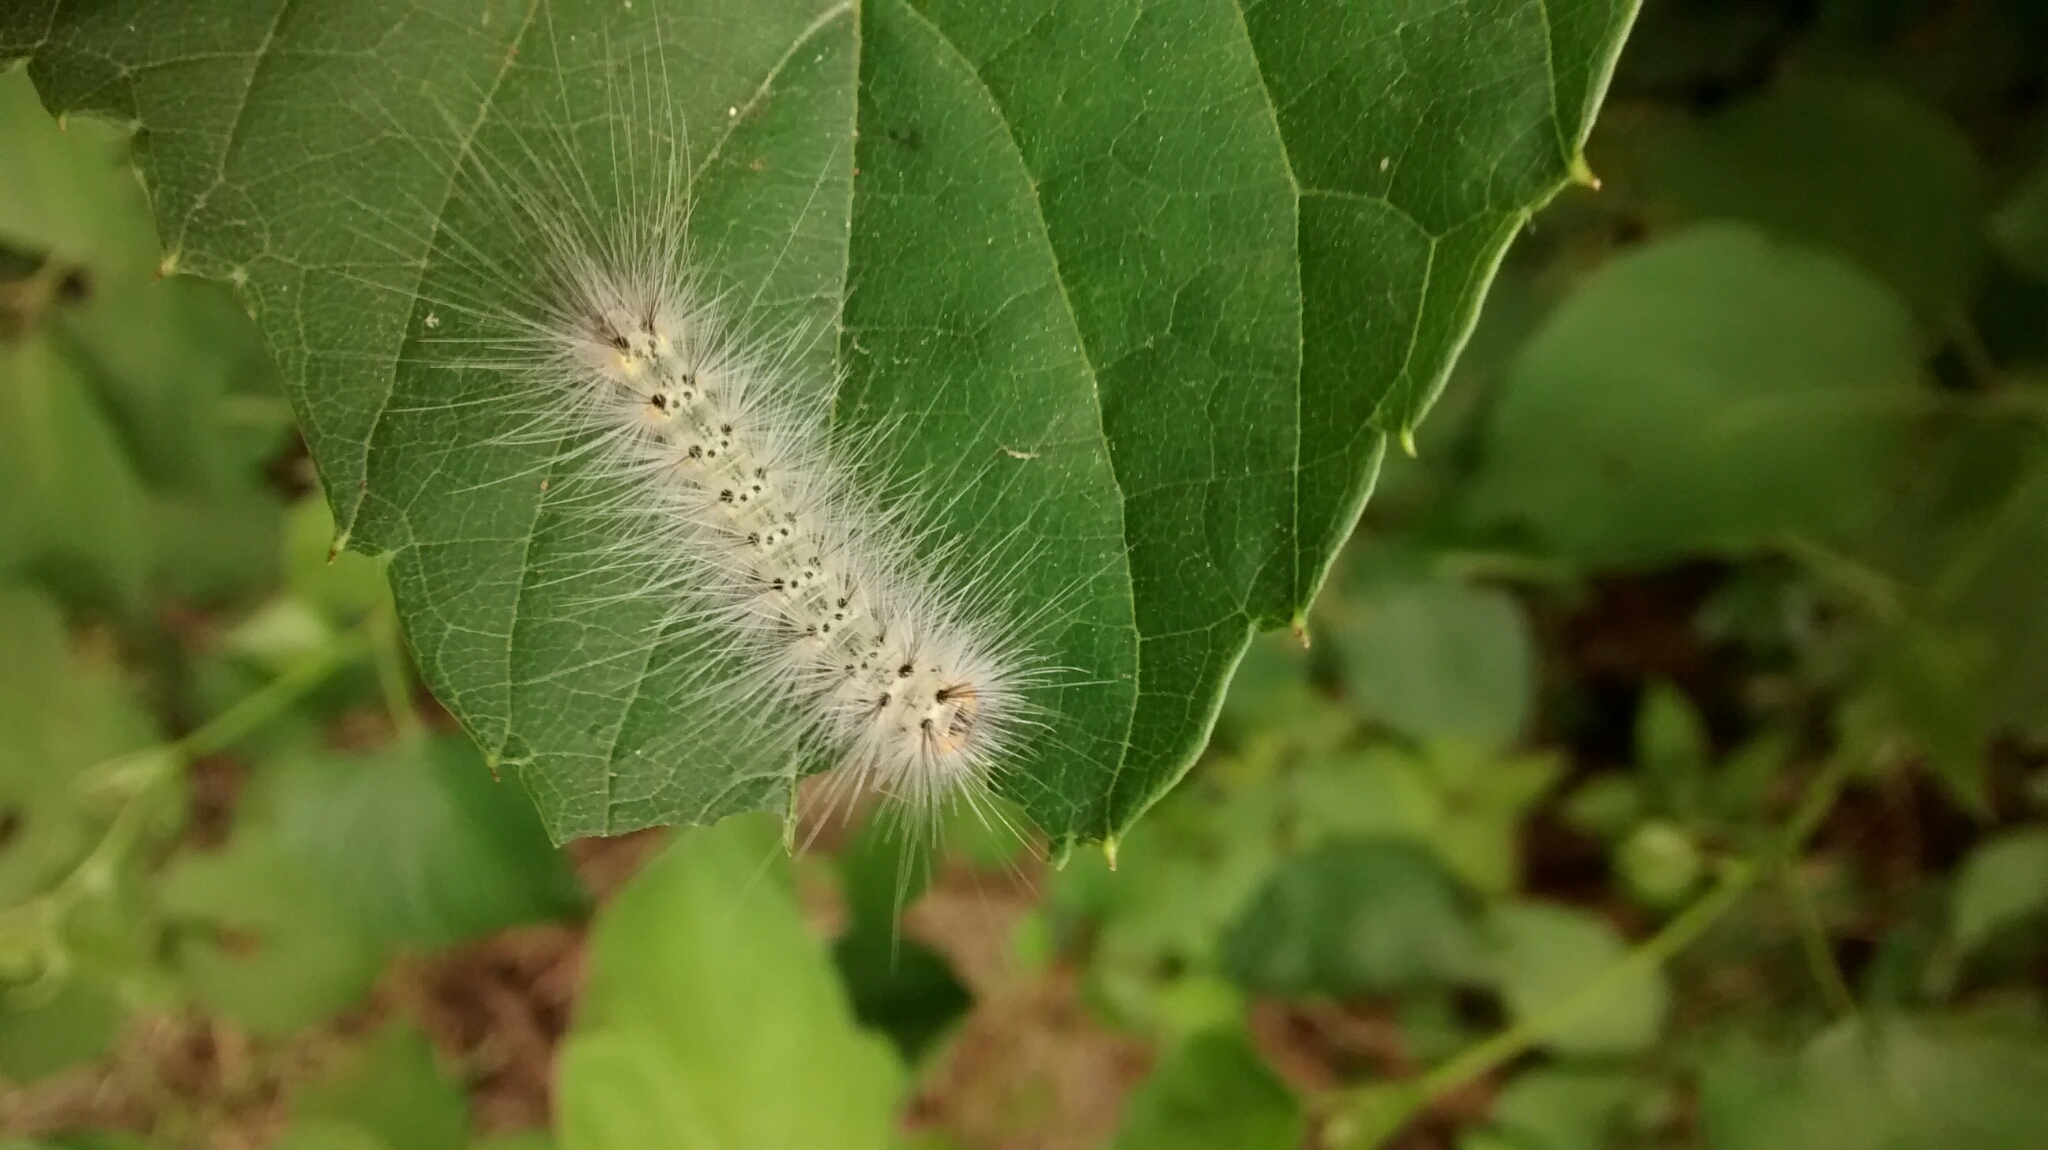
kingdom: Animalia
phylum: Arthropoda
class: Insecta
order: Lepidoptera
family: Erebidae
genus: Hyphantria
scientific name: Hyphantria cunea
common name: American white moth
